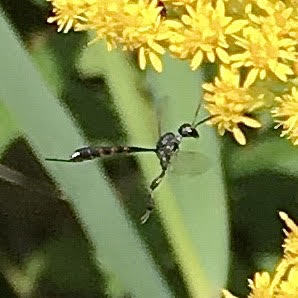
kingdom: Animalia
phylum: Arthropoda
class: Insecta
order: Hymenoptera
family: Gasteruptiidae
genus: Gasteruption
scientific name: Gasteruption
